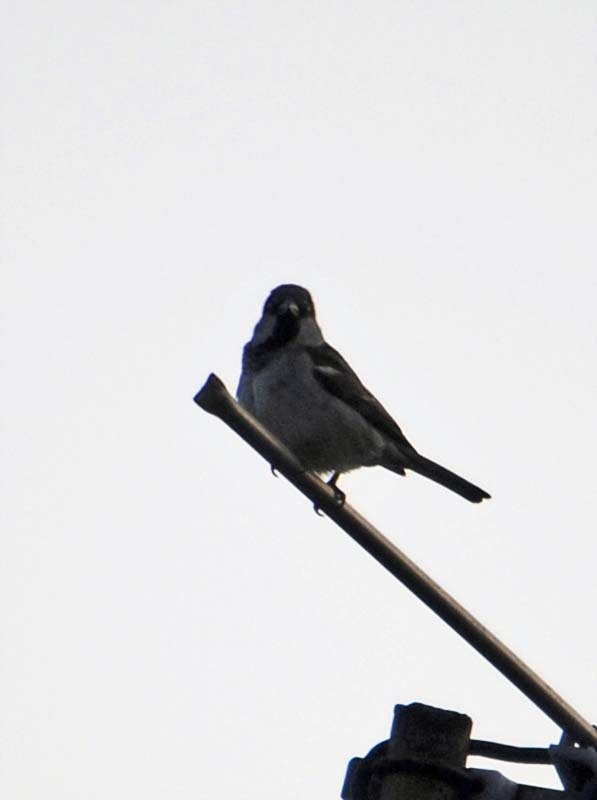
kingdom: Animalia
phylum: Chordata
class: Aves
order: Passeriformes
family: Passeridae
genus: Passer
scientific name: Passer domesticus
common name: House sparrow
